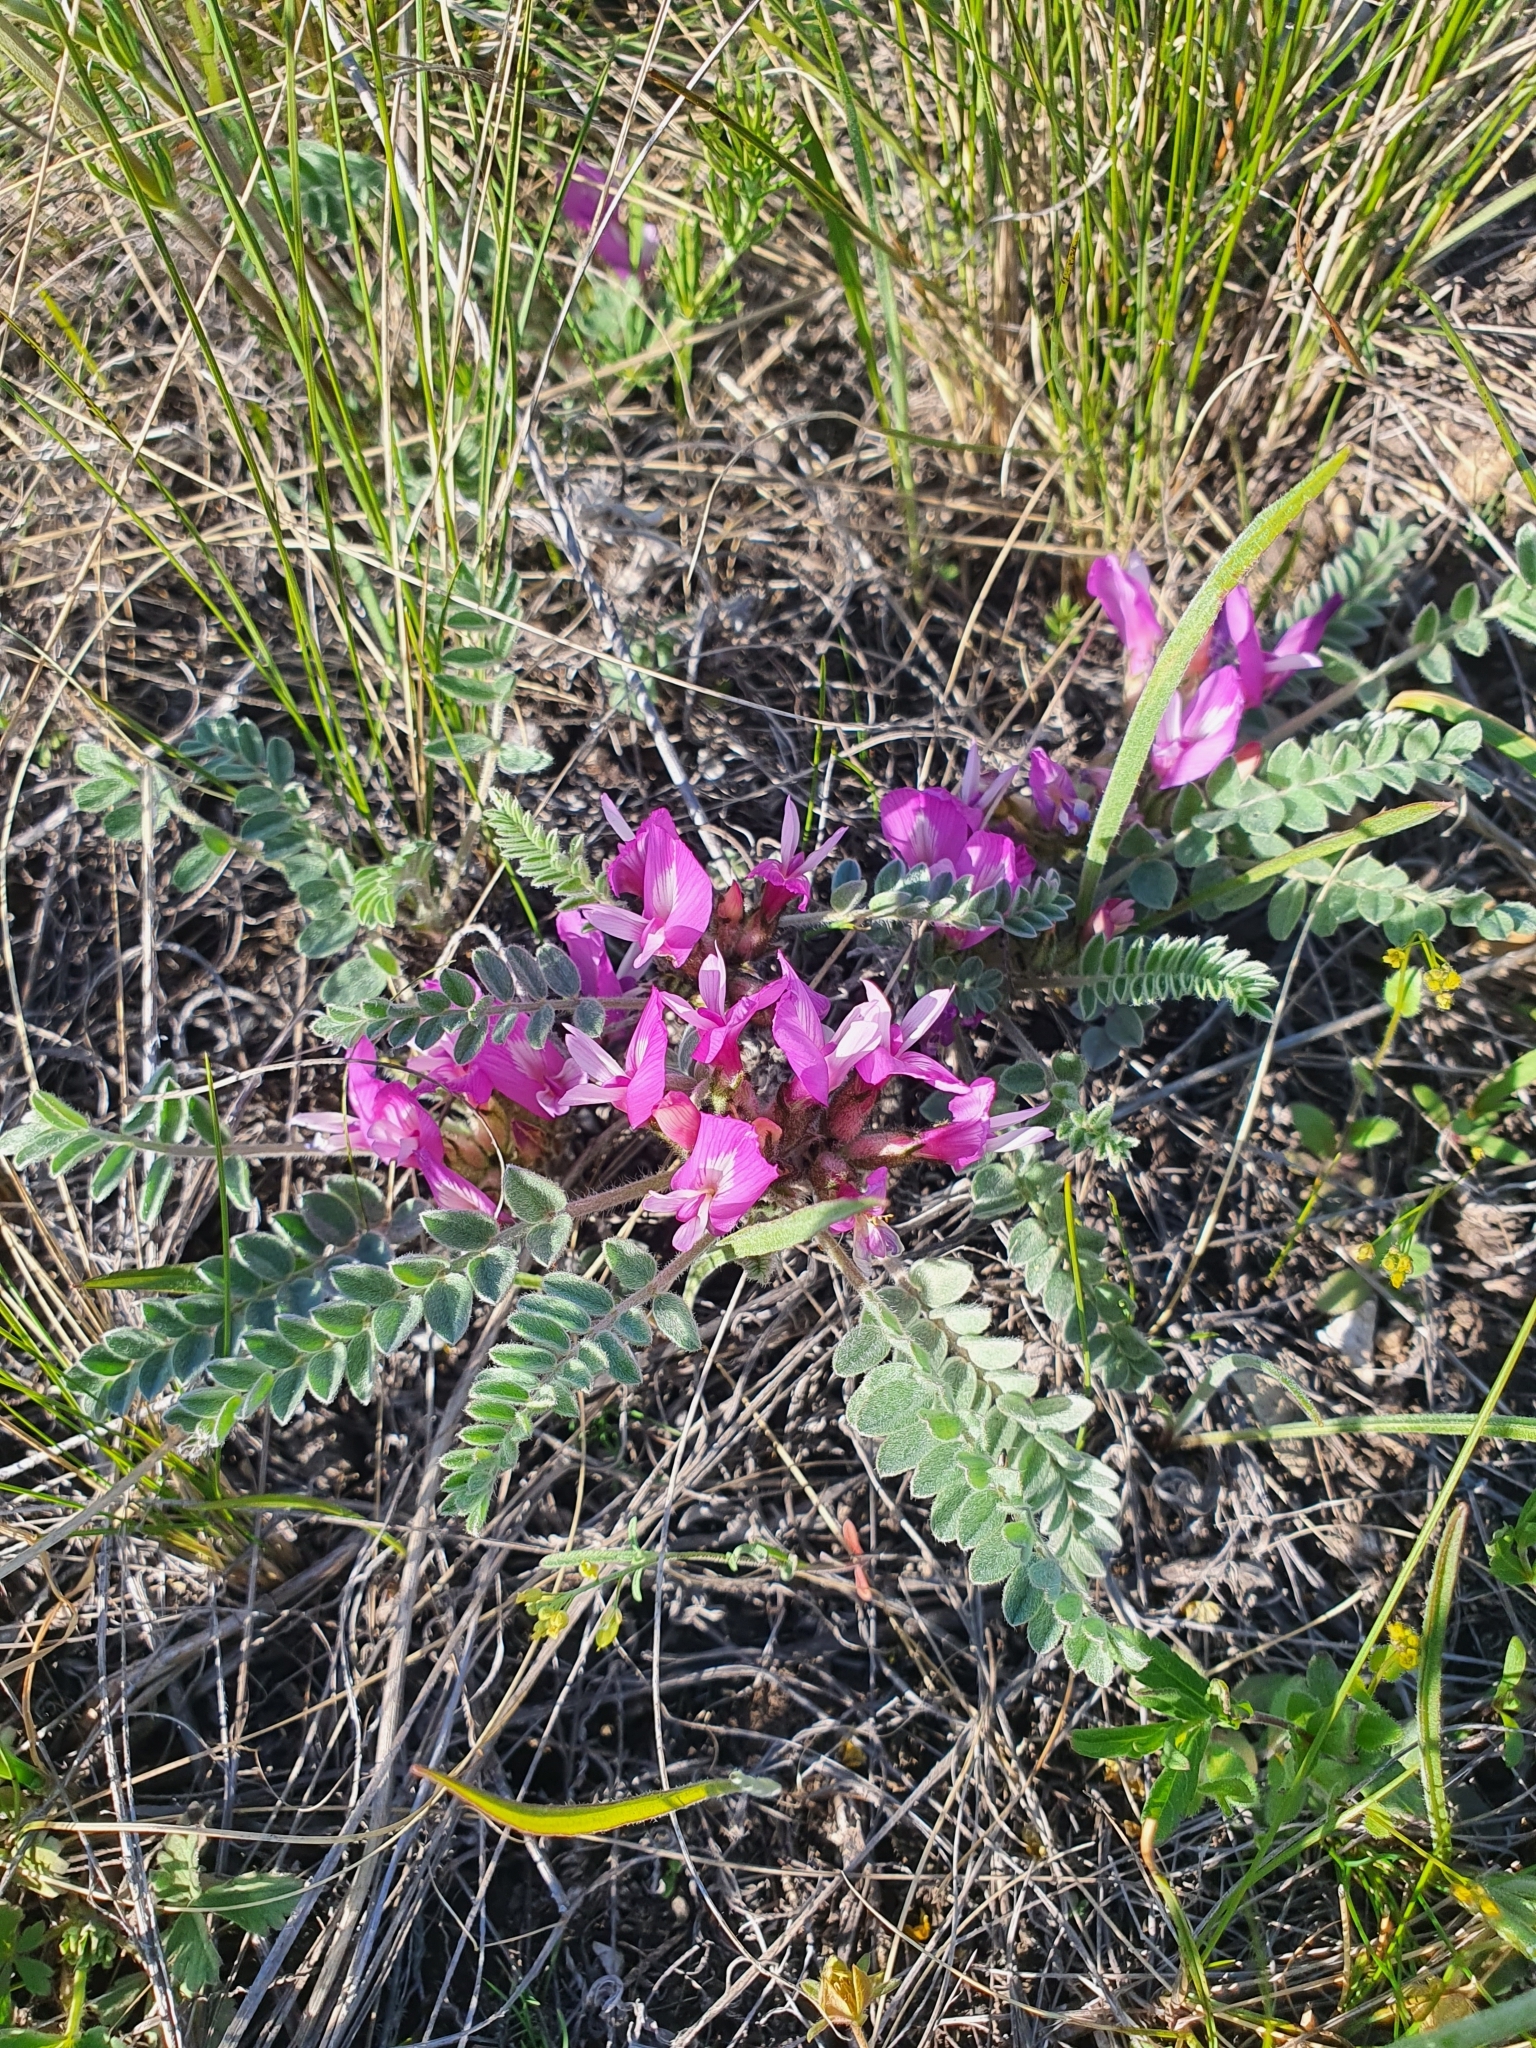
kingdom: Plantae
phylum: Tracheophyta
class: Magnoliopsida
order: Fabales
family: Fabaceae
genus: Astragalus
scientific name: Astragalus testiculatus
